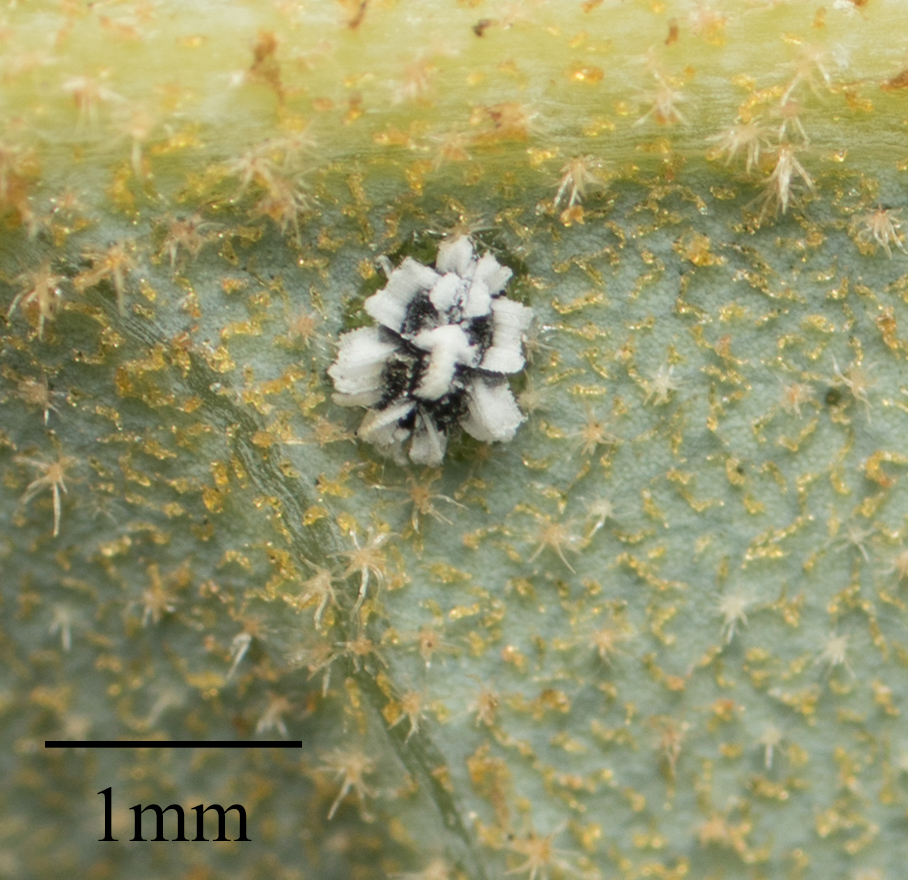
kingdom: Animalia
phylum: Arthropoda
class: Insecta
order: Hemiptera
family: Aleyrodidae
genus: Aleuroplatus
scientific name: Aleuroplatus coronata
